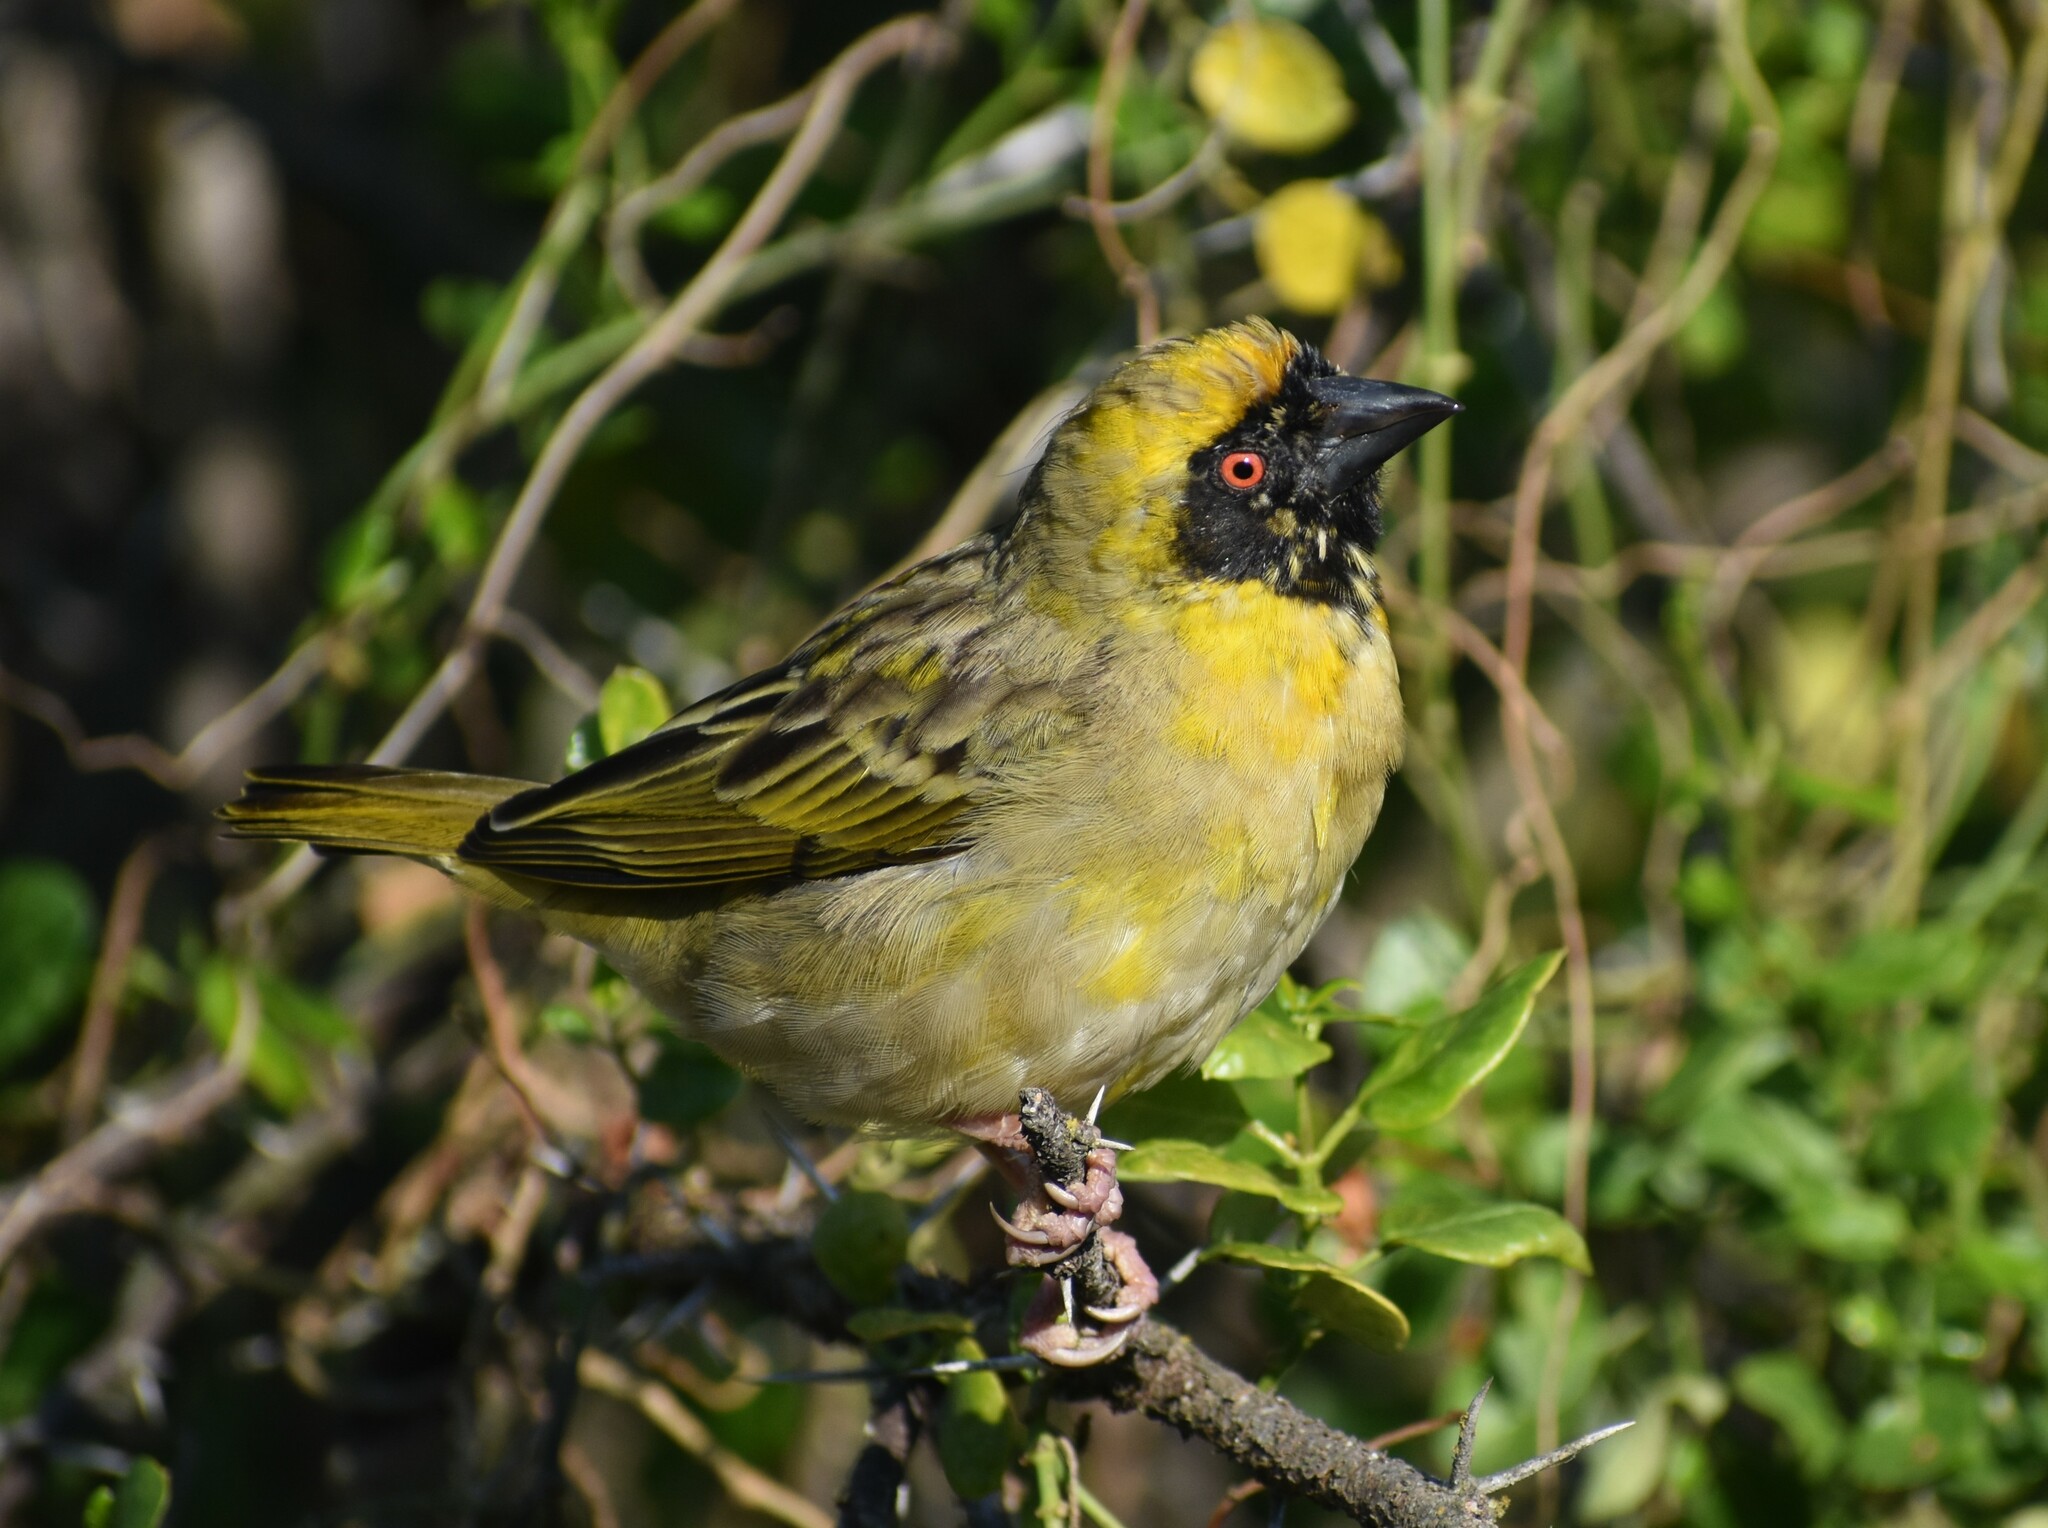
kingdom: Animalia
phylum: Chordata
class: Aves
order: Passeriformes
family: Ploceidae
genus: Ploceus
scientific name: Ploceus velatus
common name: Southern masked weaver
